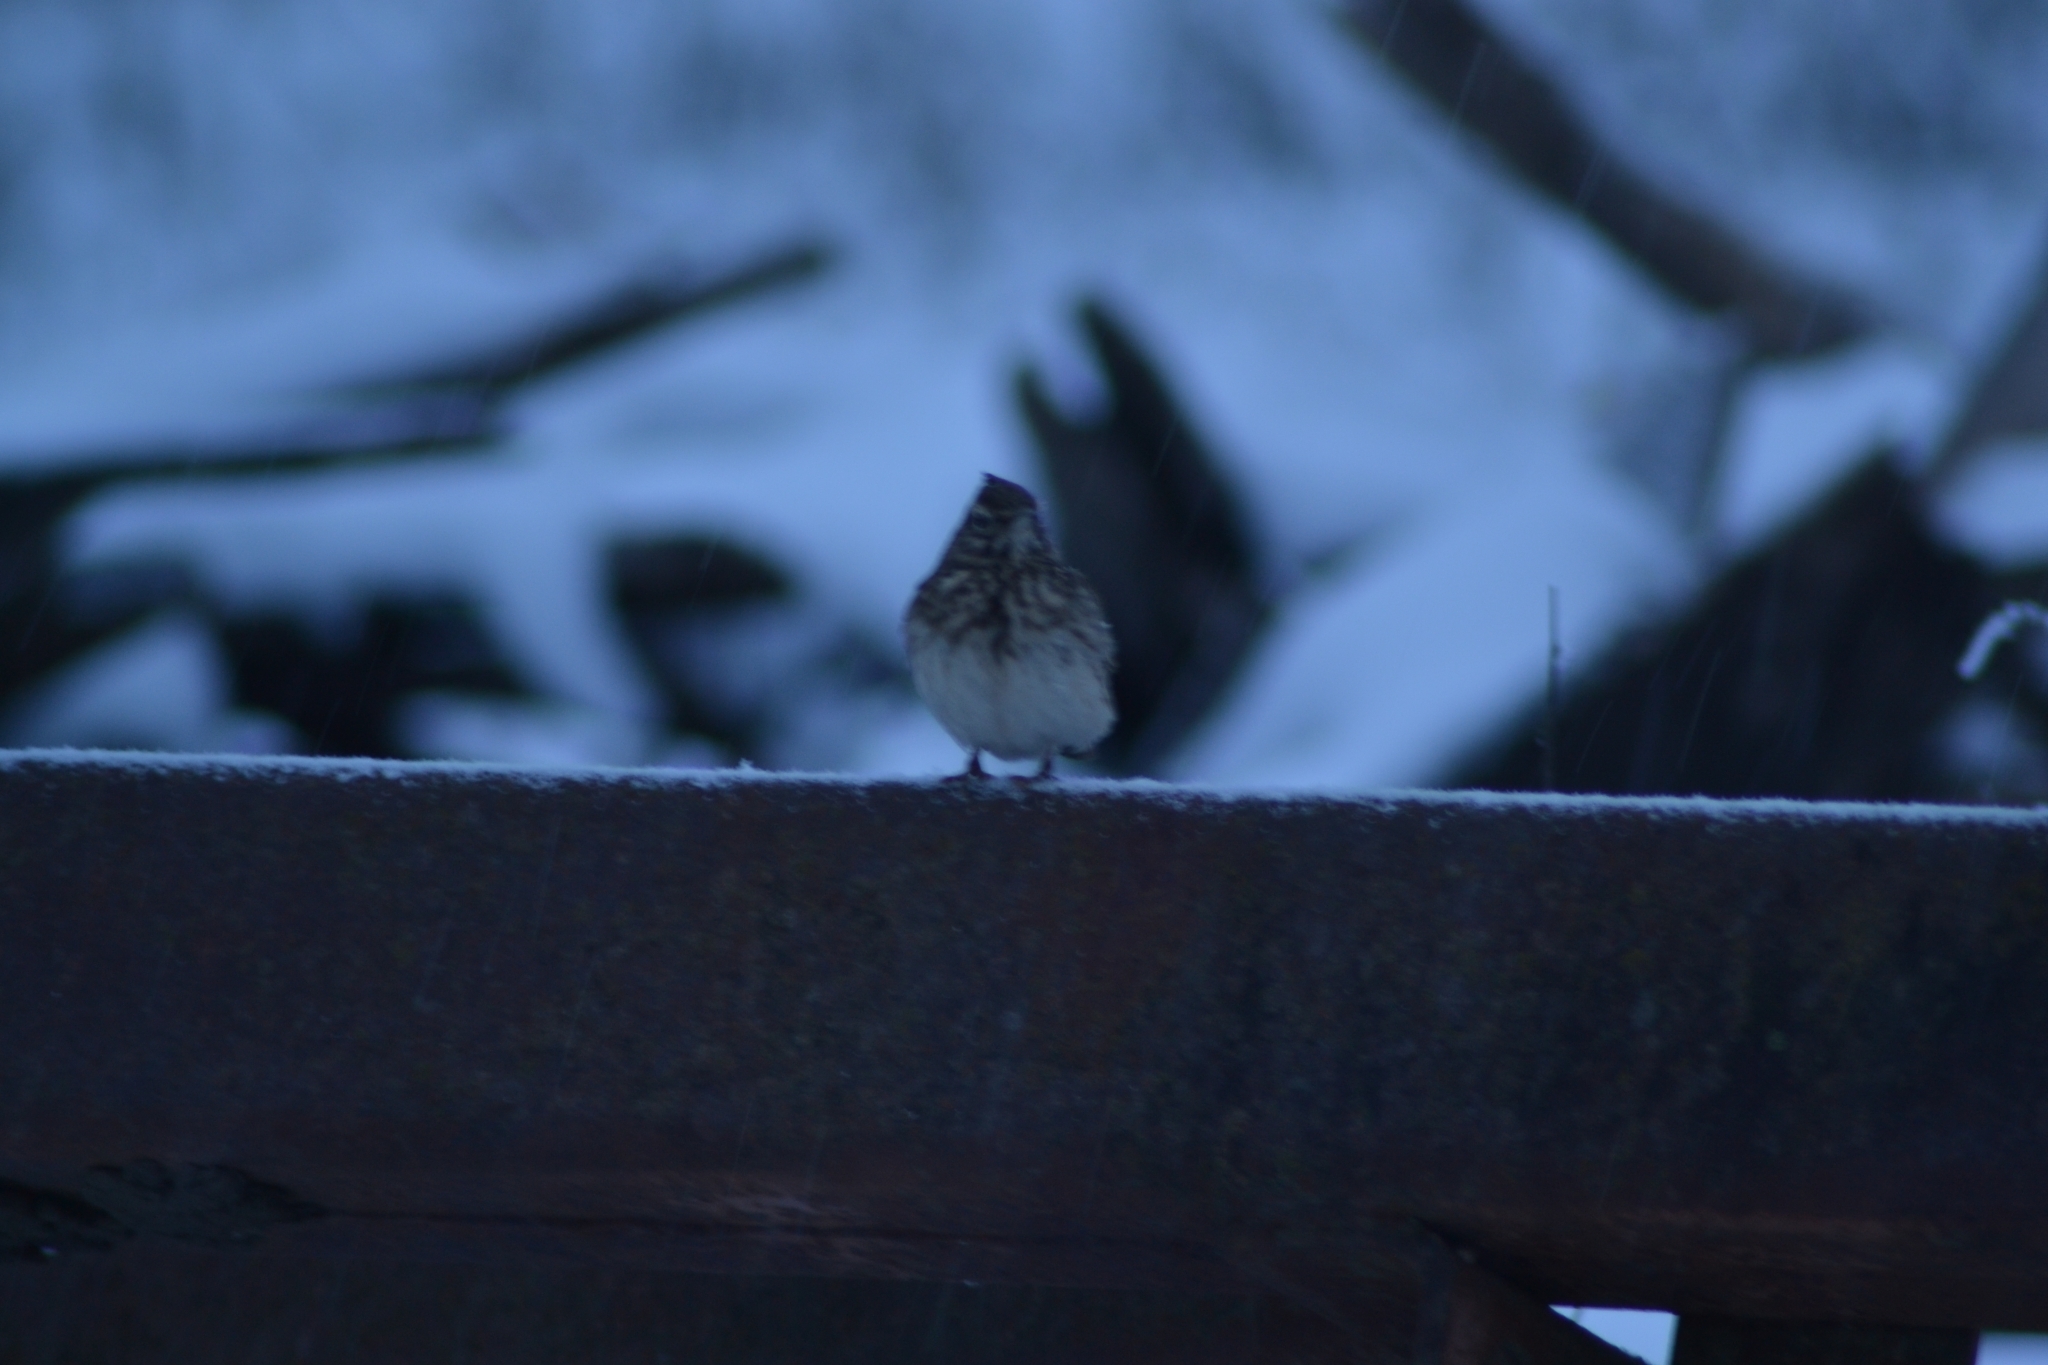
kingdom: Animalia
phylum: Chordata
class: Aves
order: Passeriformes
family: Alaudidae
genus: Galerida
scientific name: Galerida cristata
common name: Crested lark
